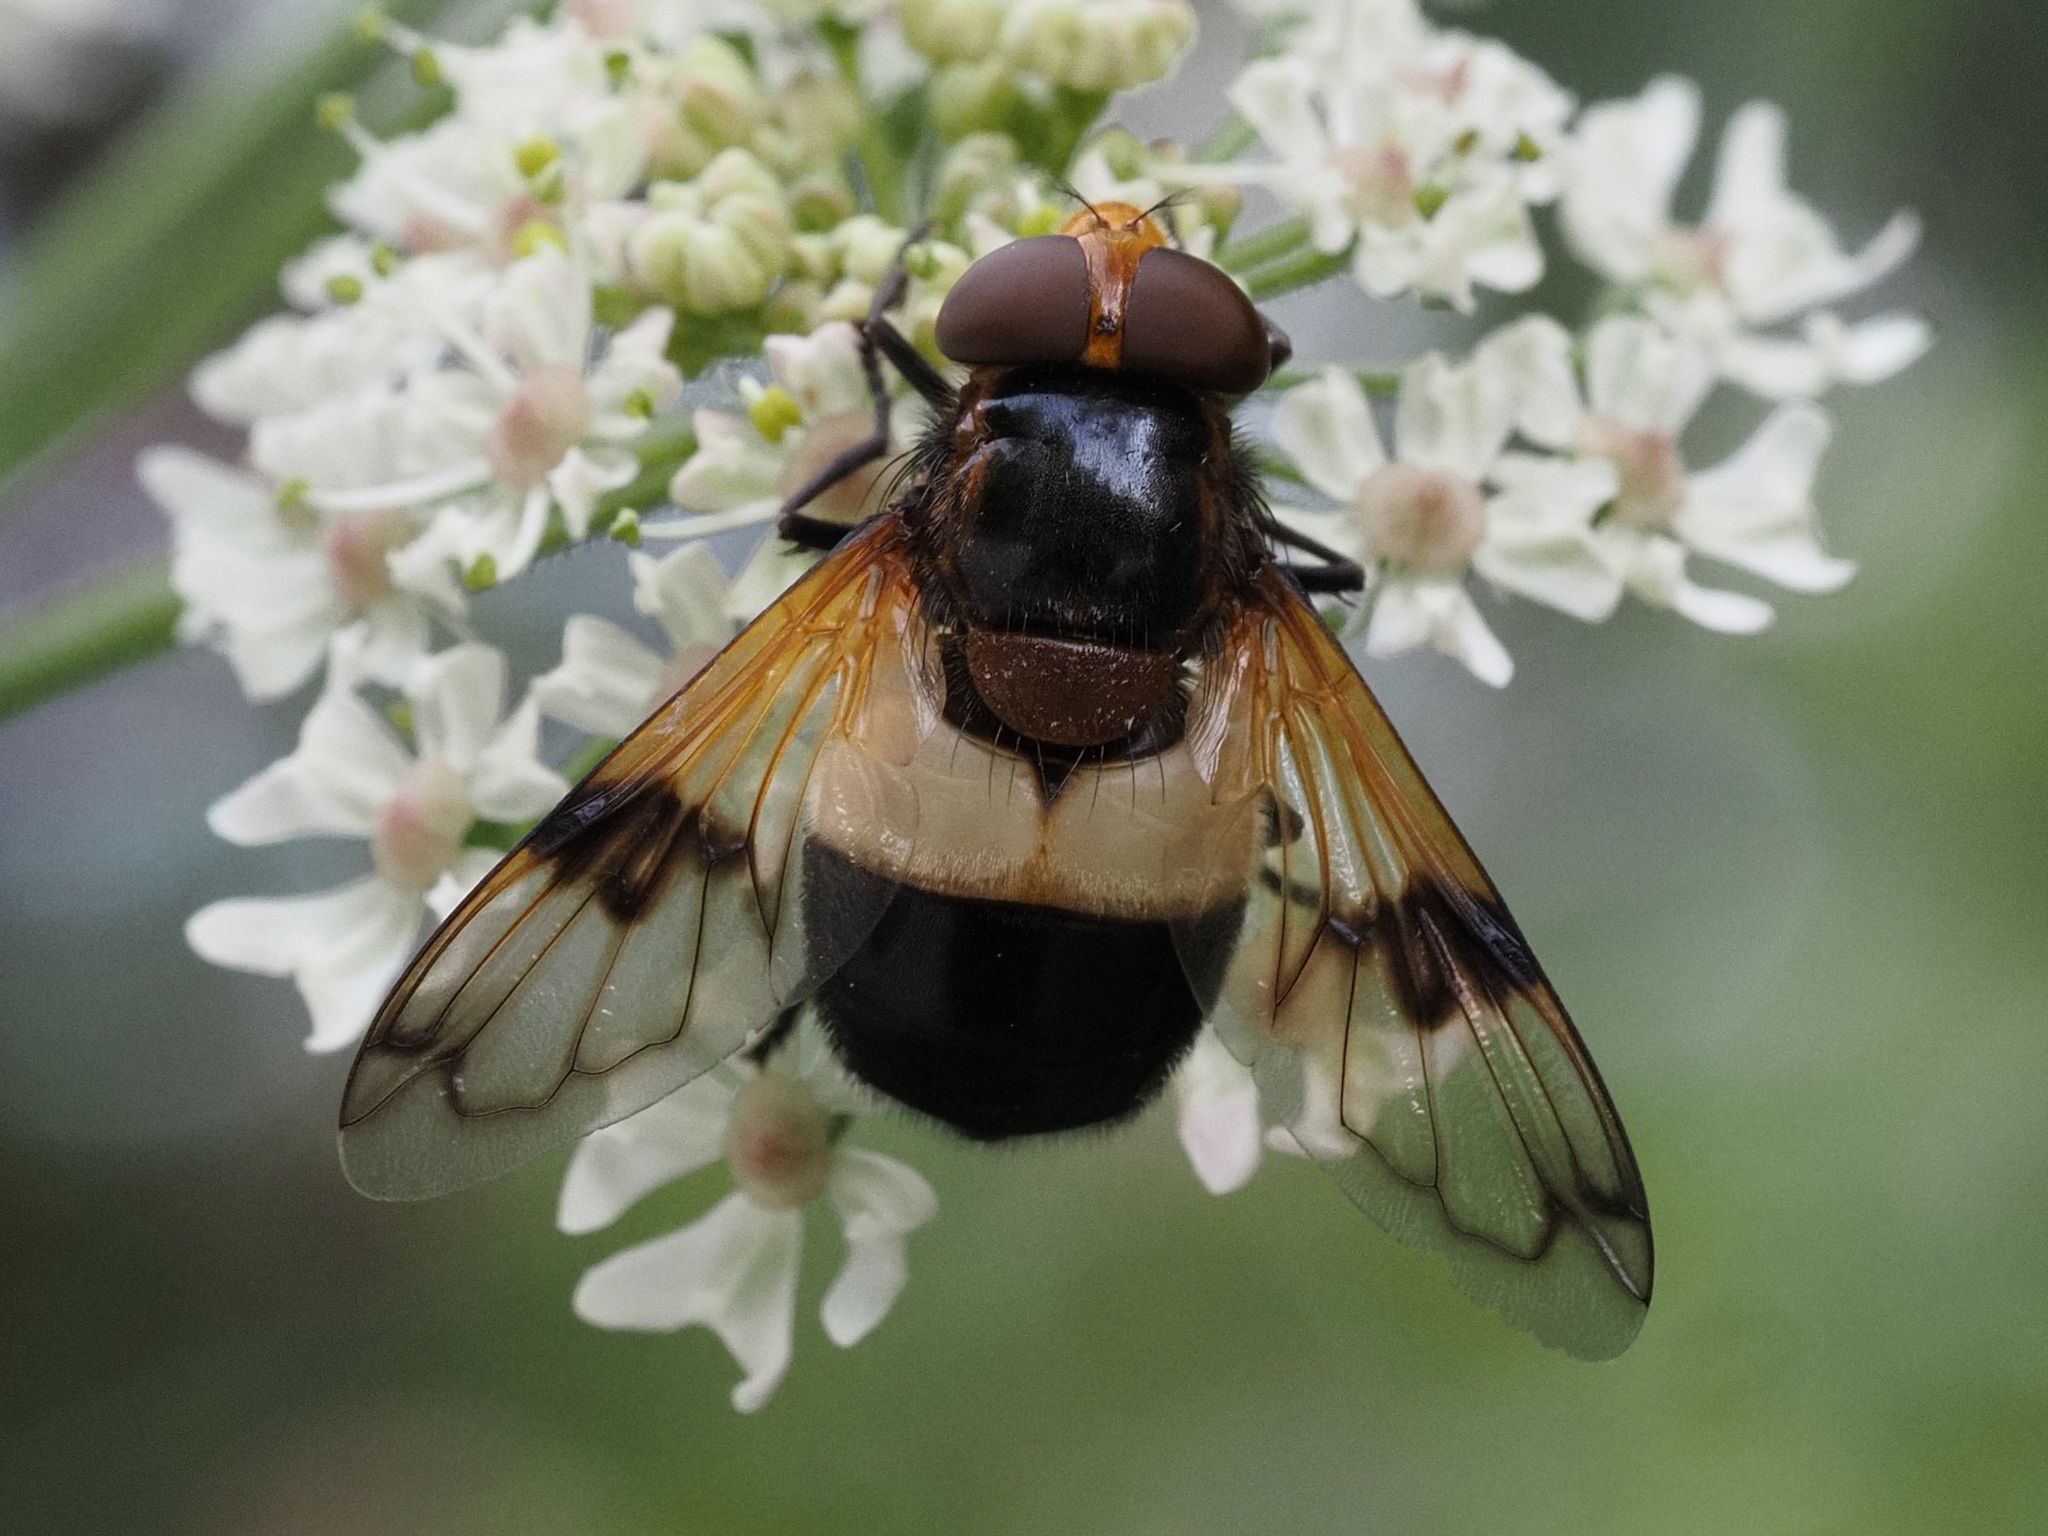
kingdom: Animalia
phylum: Arthropoda
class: Insecta
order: Diptera
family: Syrphidae
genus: Volucella
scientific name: Volucella pellucens
